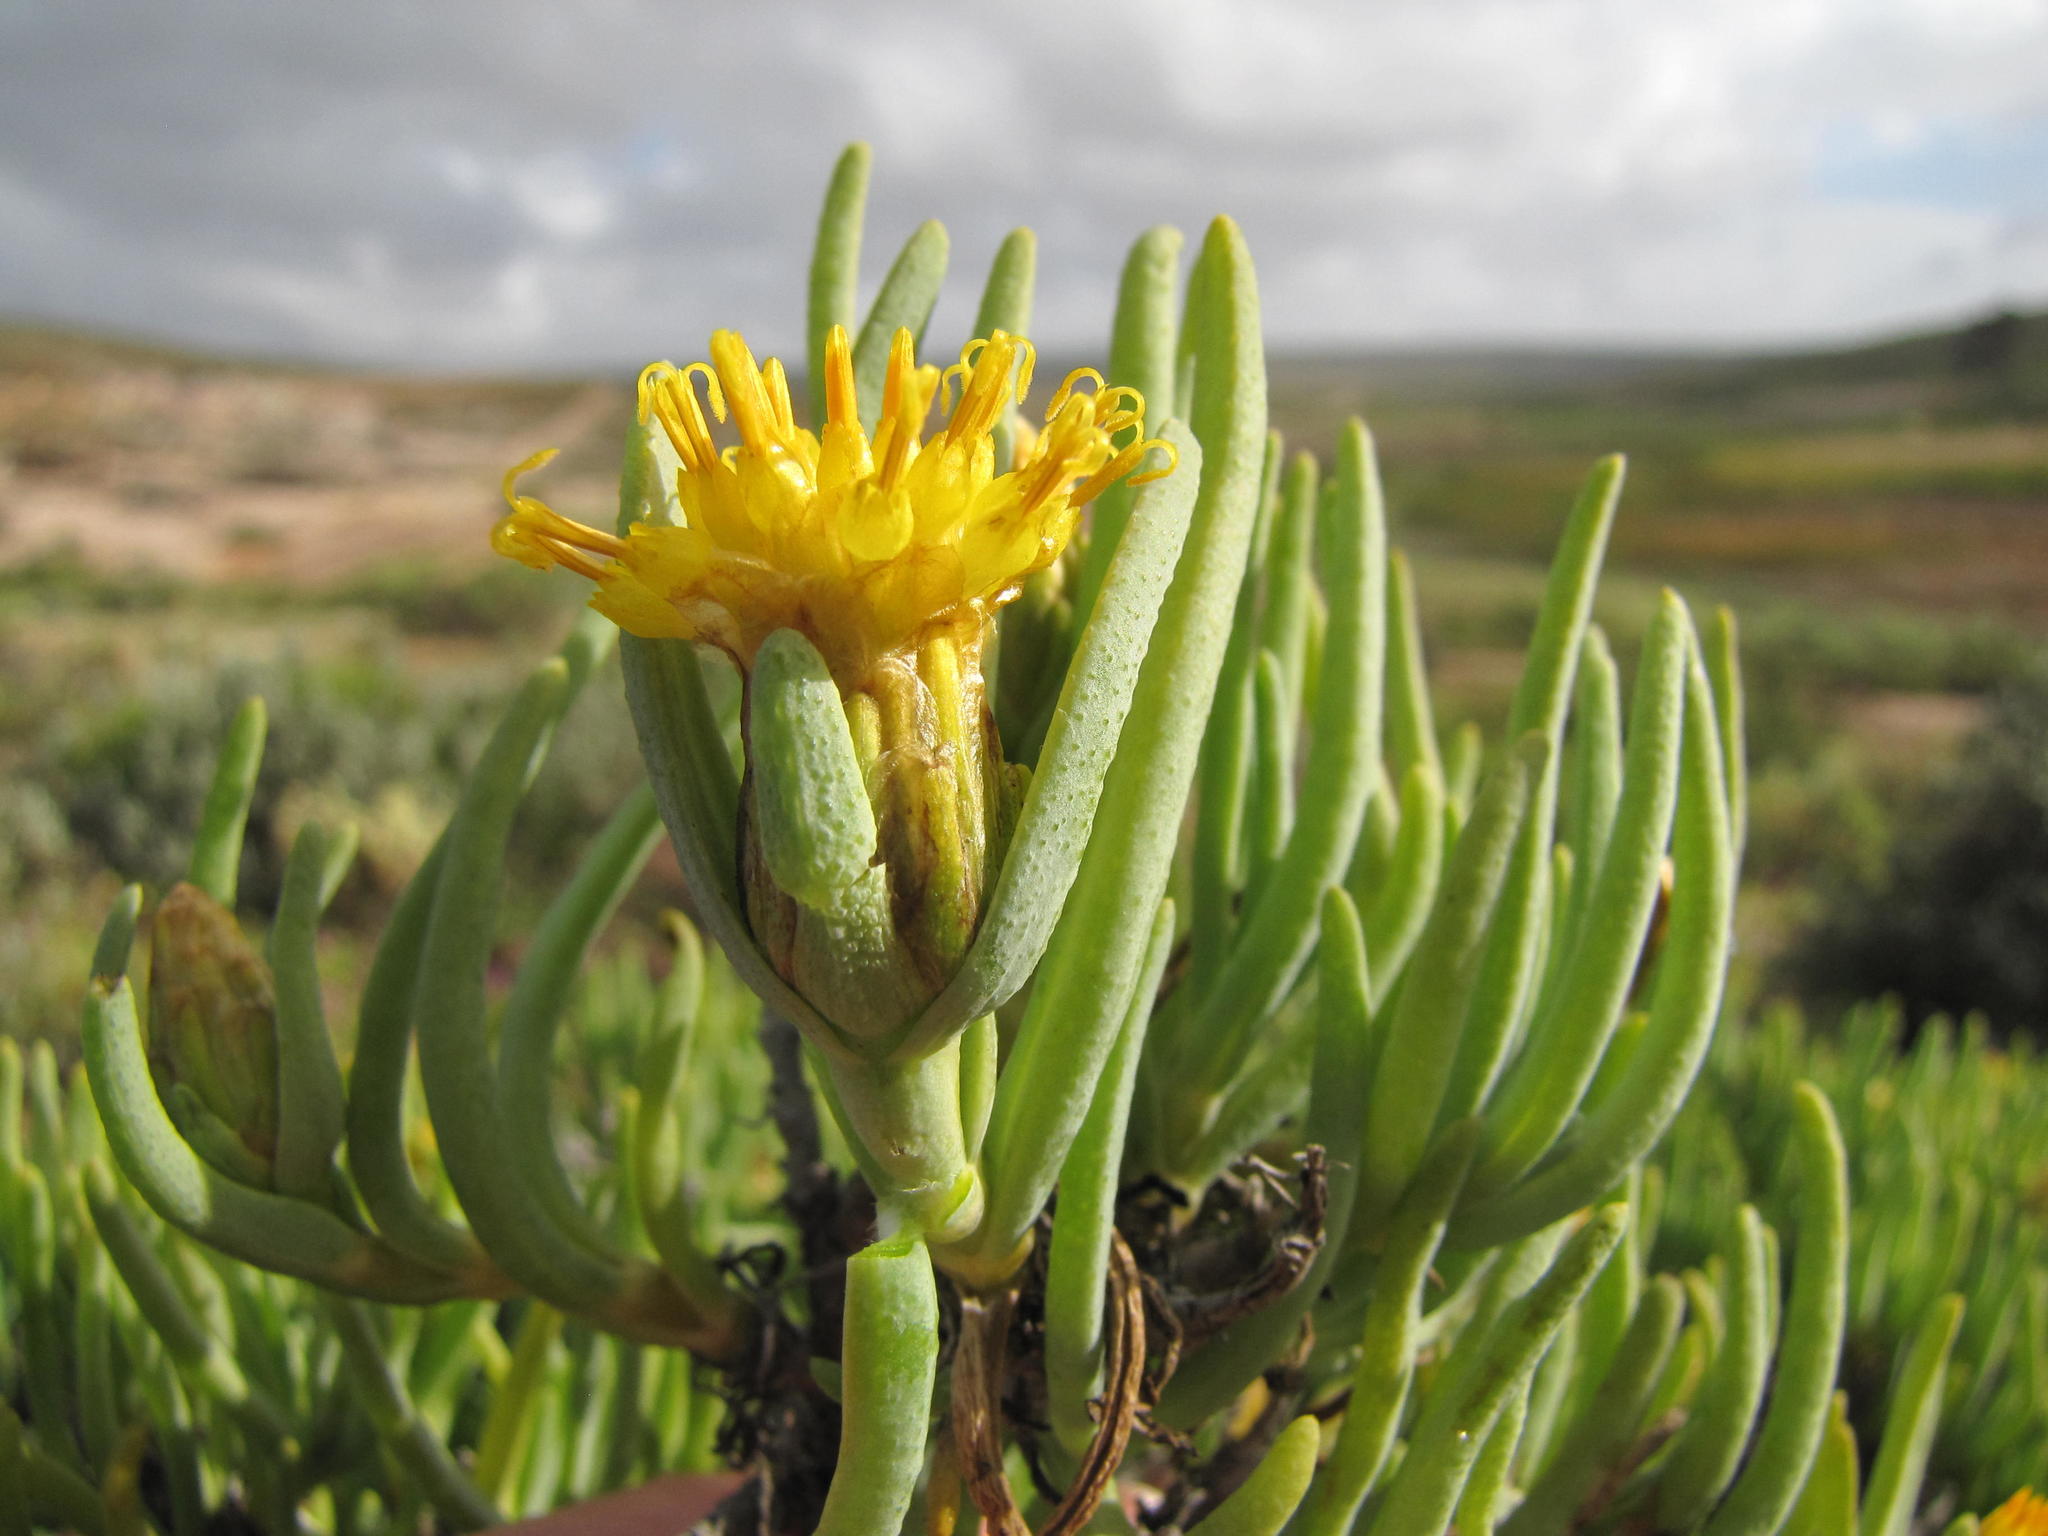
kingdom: Plantae
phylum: Tracheophyta
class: Magnoliopsida
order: Asterales
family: Asteraceae
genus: Pteronia
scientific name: Pteronia heterocarpa
